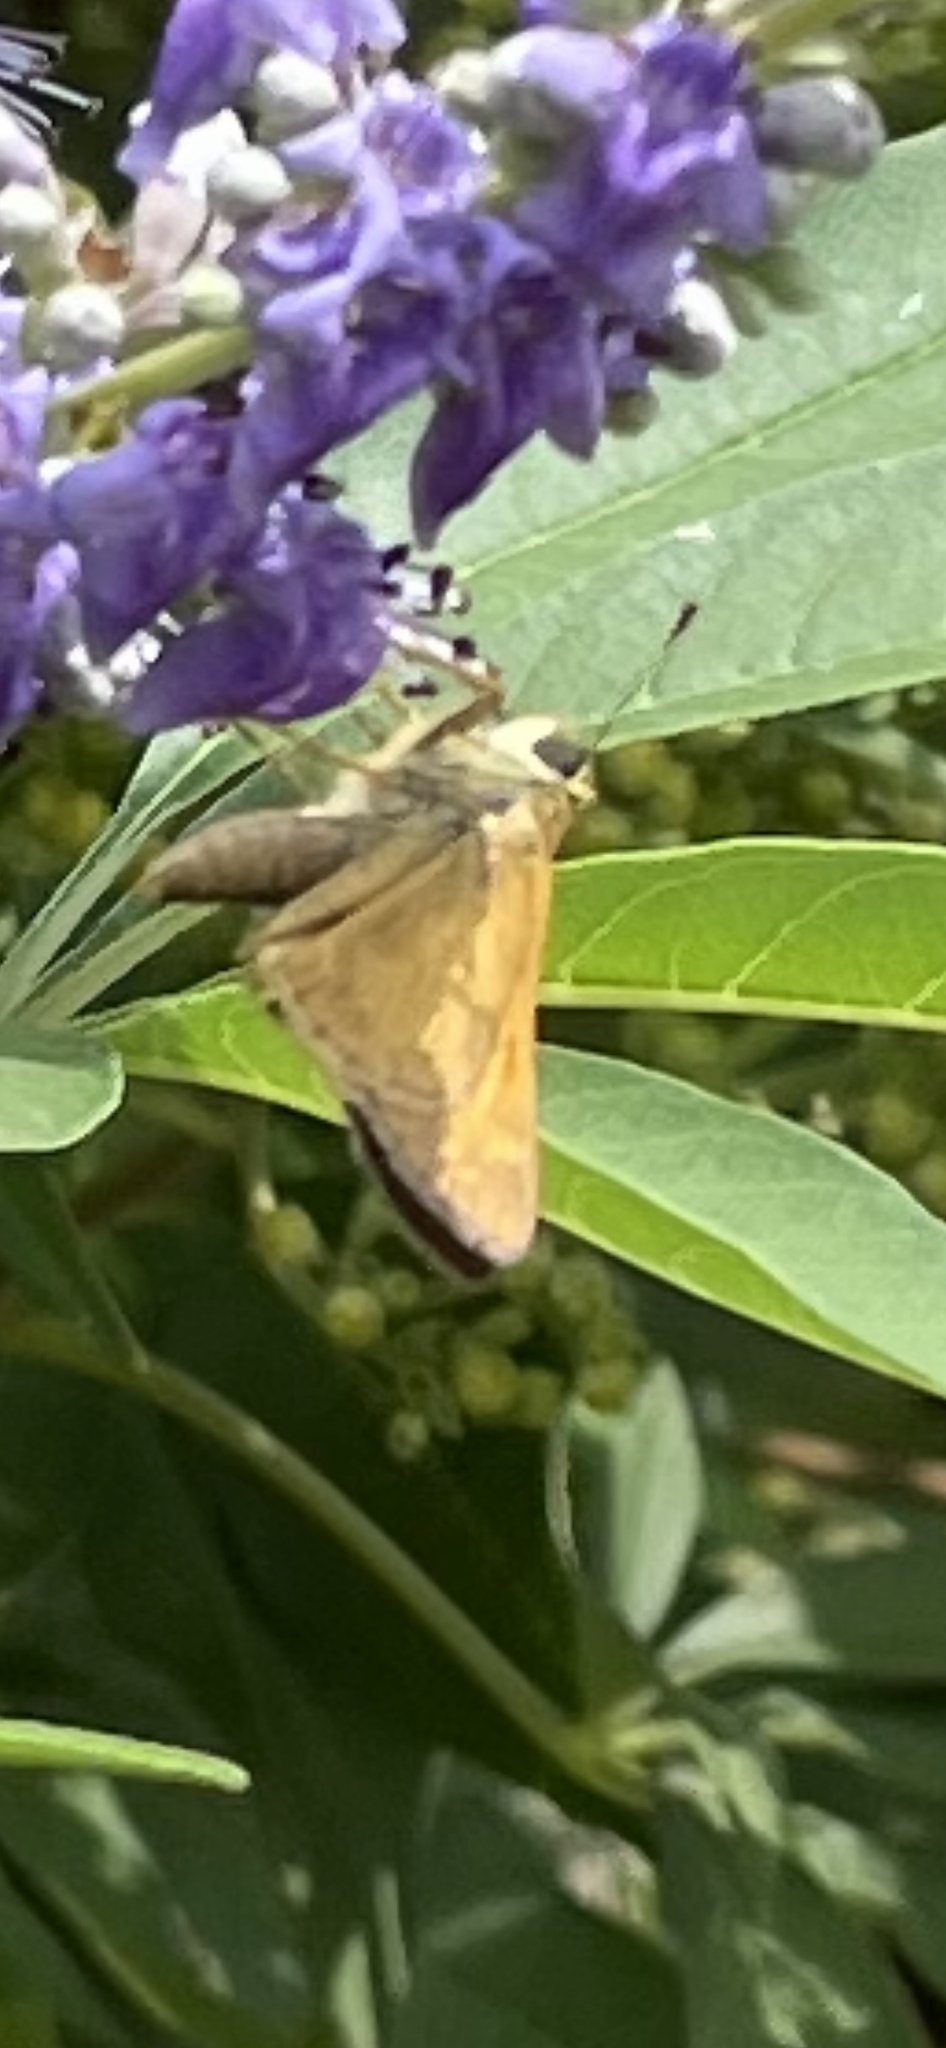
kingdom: Animalia
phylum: Arthropoda
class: Insecta
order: Lepidoptera
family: Hesperiidae
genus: Atalopedes
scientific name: Atalopedes
